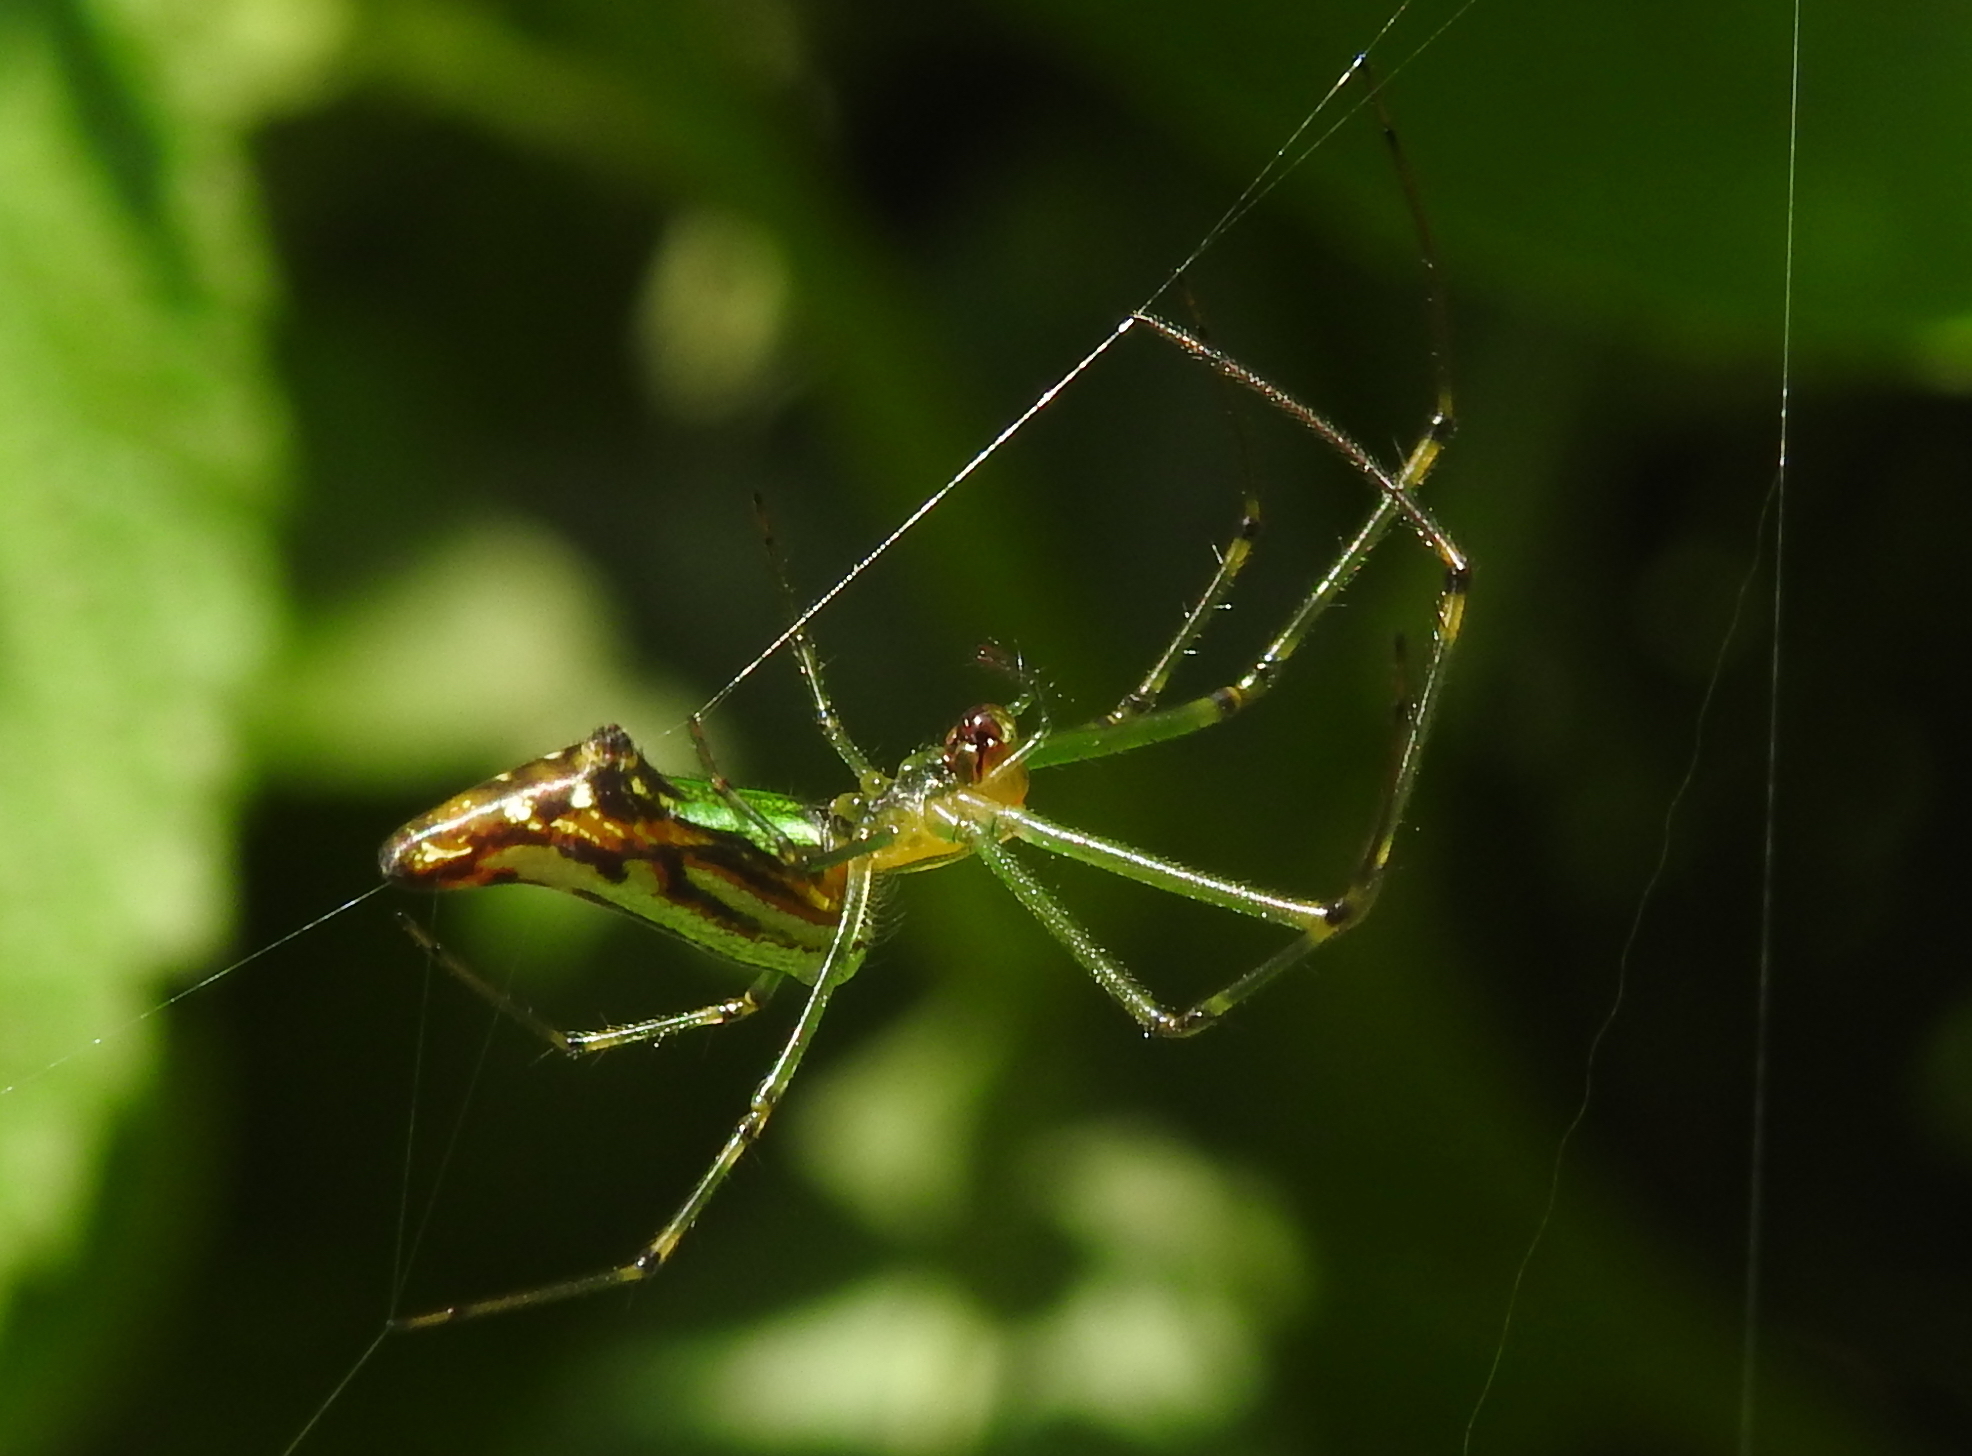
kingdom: Animalia
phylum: Arthropoda
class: Arachnida
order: Araneae
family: Tetragnathidae
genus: Leucauge
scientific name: Leucauge decorata
